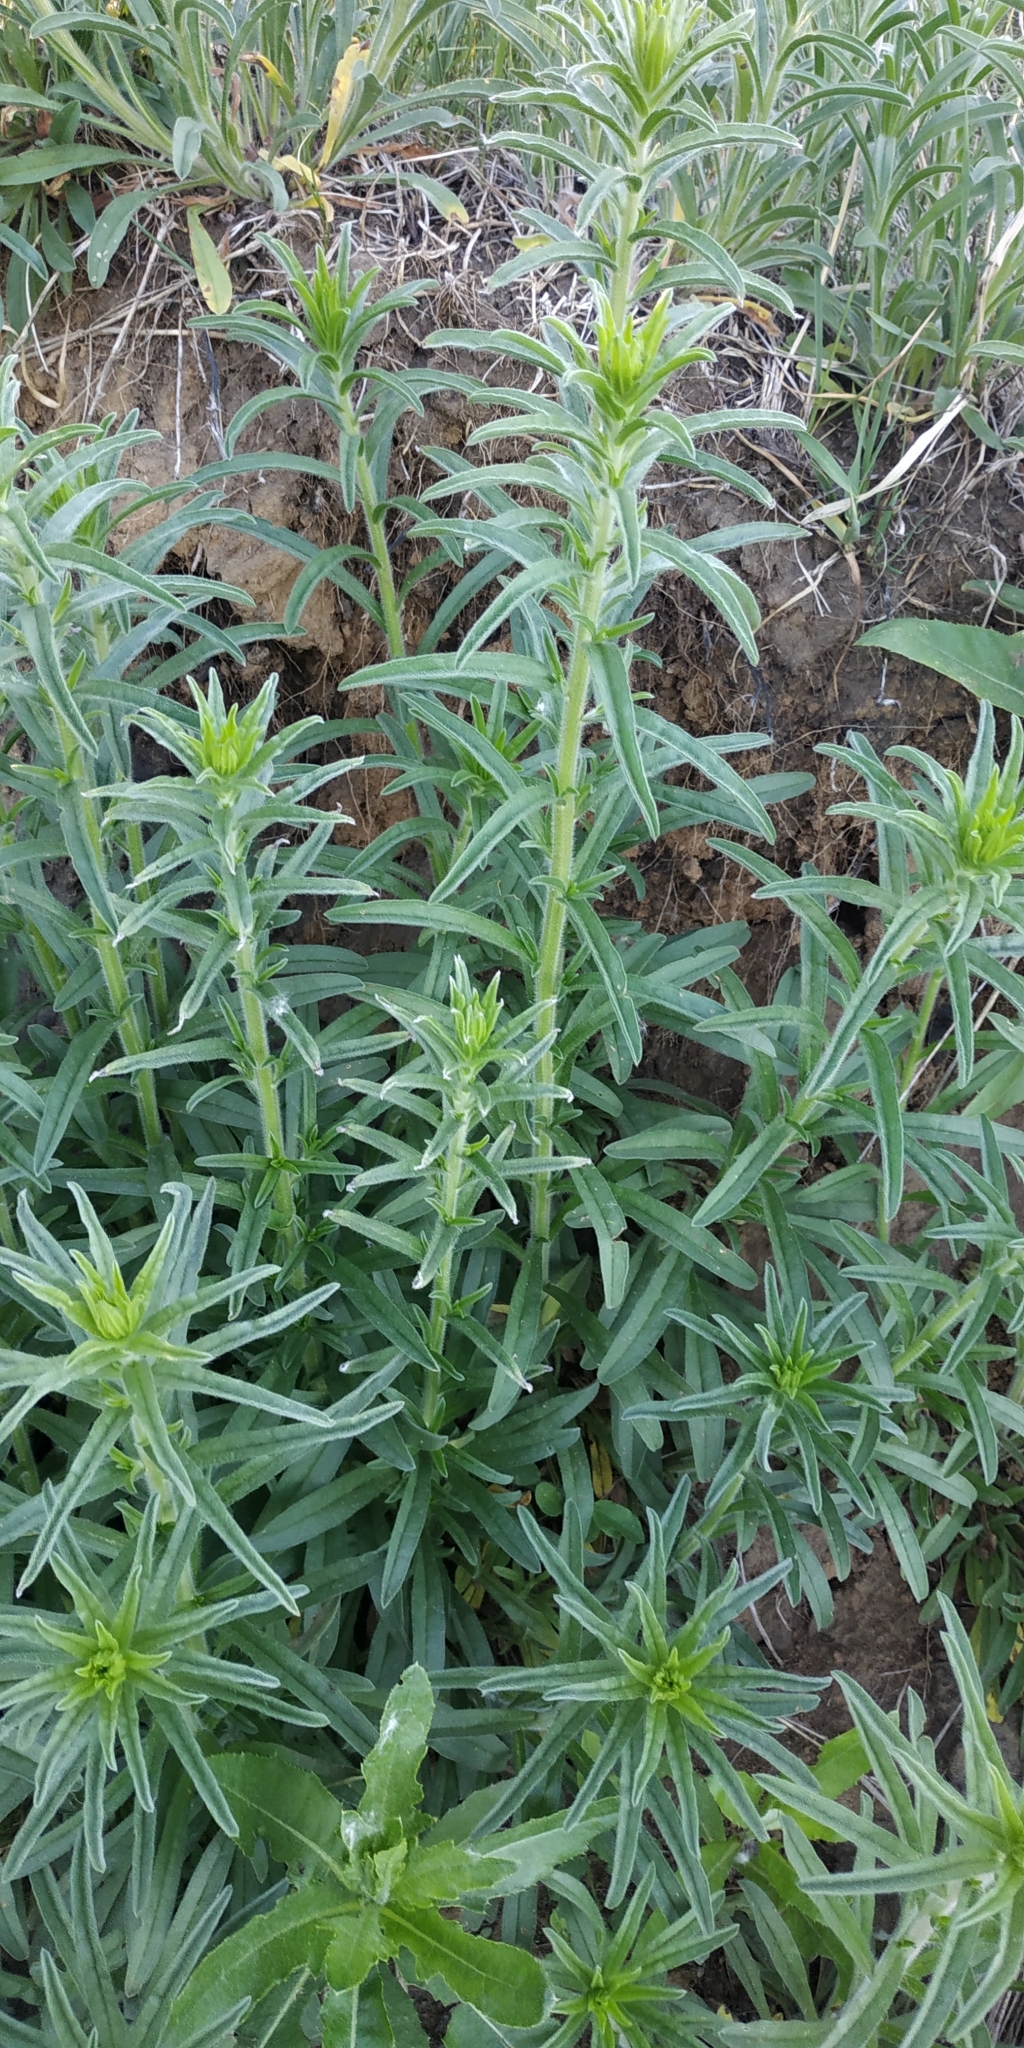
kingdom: Plantae
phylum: Tracheophyta
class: Magnoliopsida
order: Boraginales
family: Boraginaceae
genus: Echium
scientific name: Echium vulgare
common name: Common viper's bugloss
